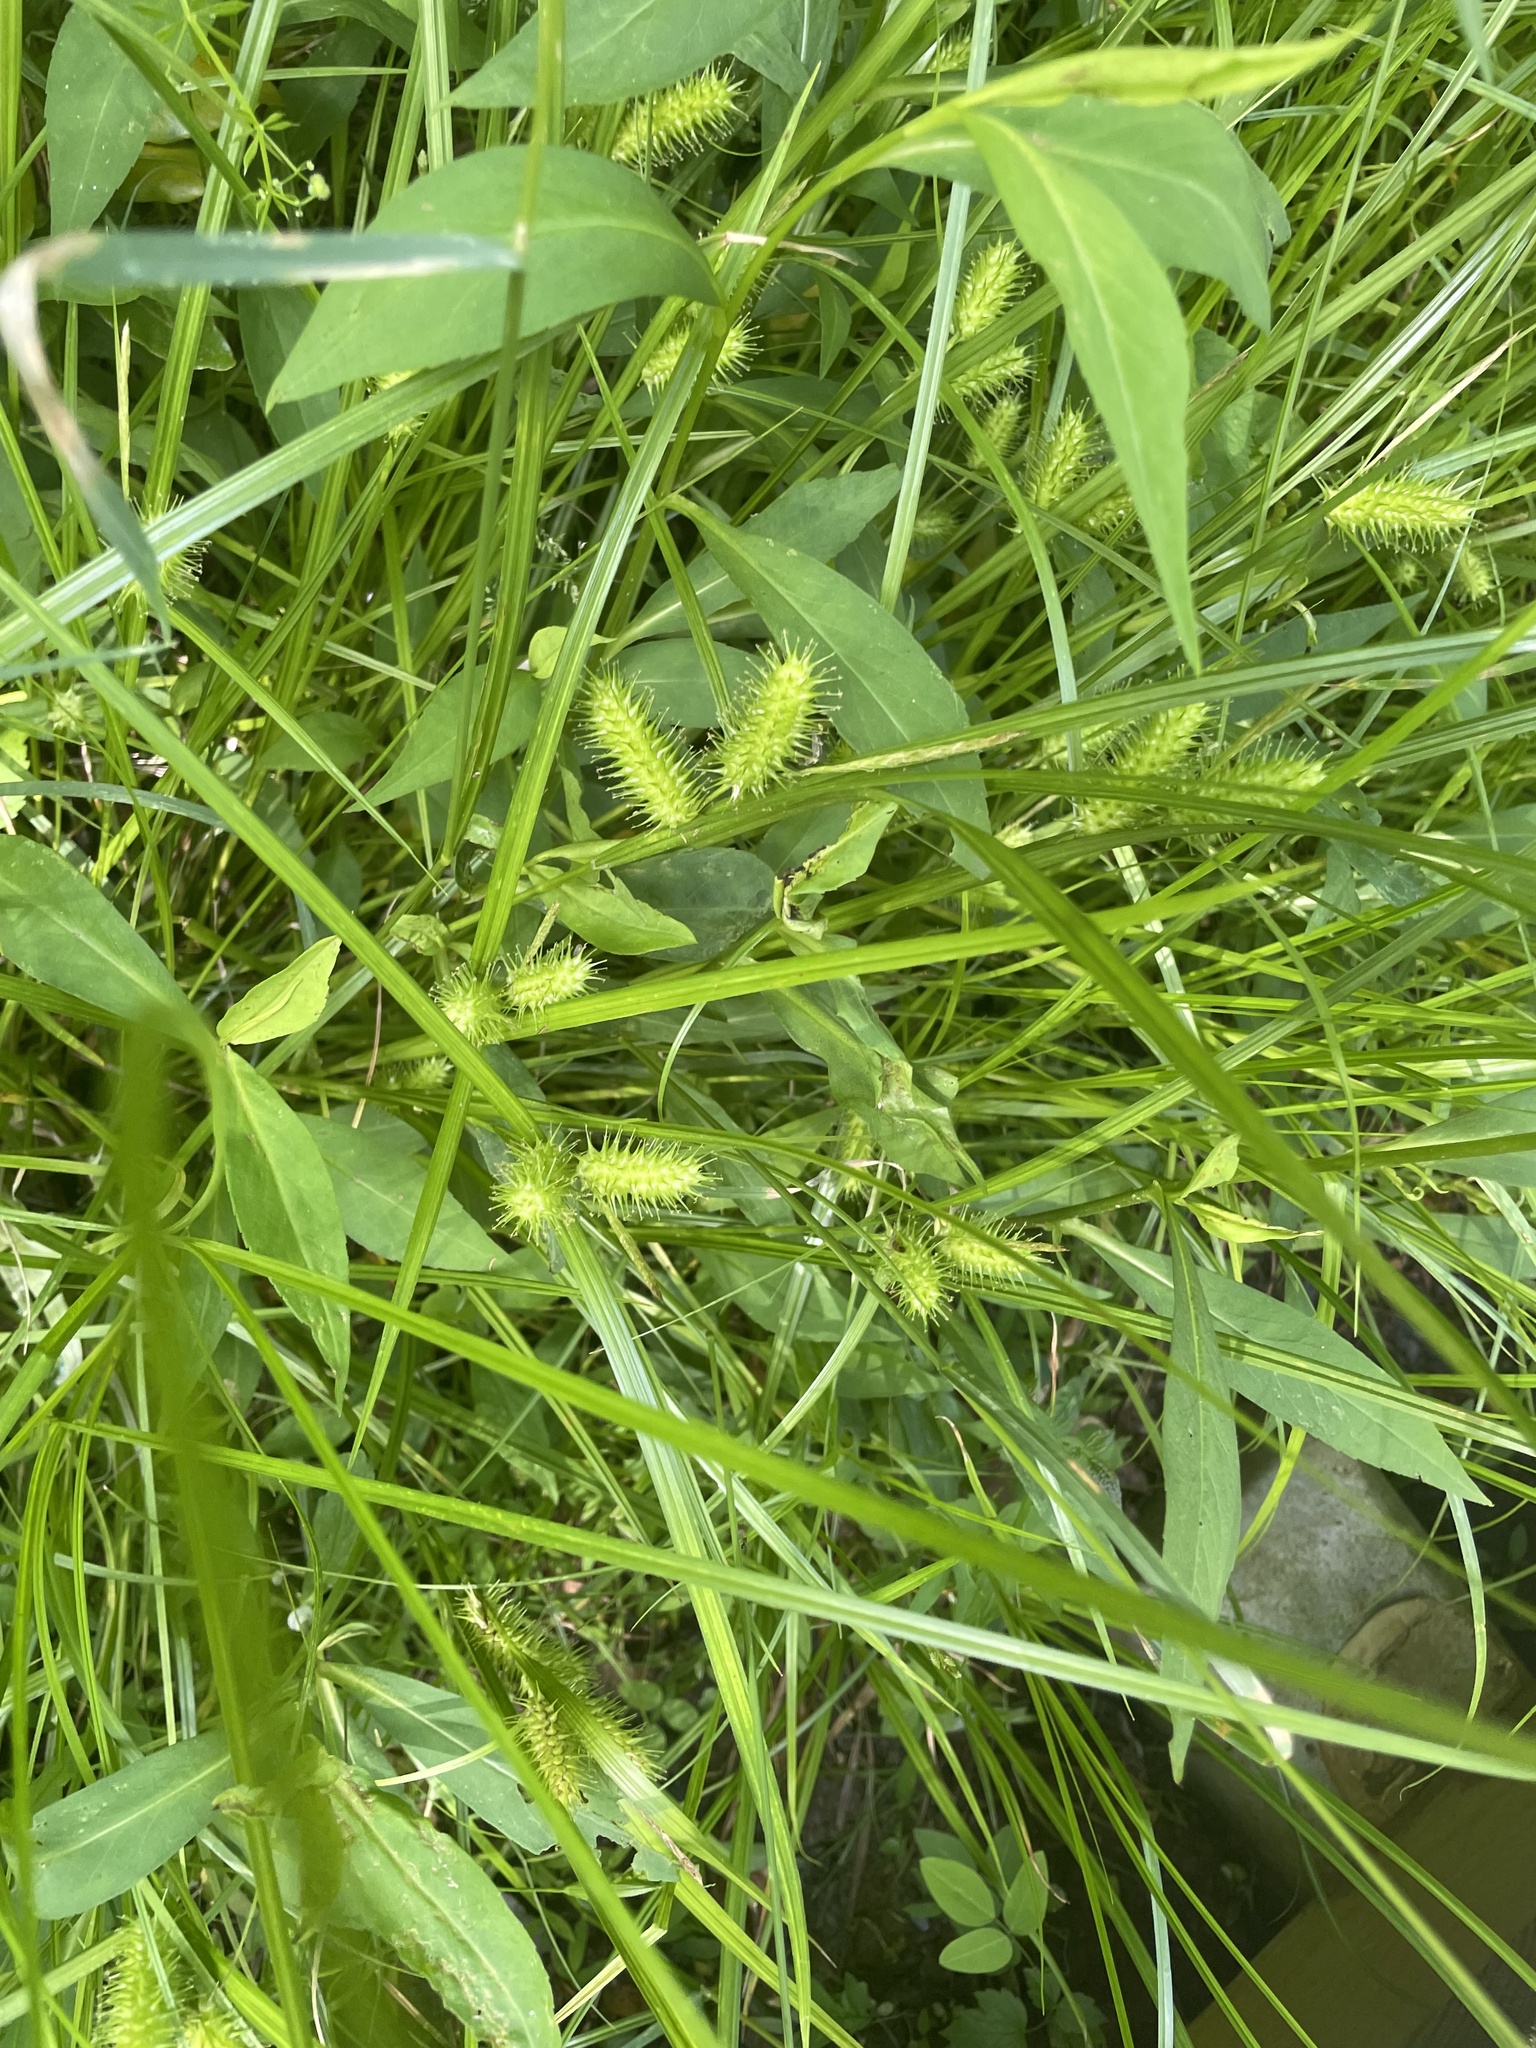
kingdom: Plantae
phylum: Tracheophyta
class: Liliopsida
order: Poales
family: Cyperaceae
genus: Carex
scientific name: Carex lurida
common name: Sallow sedge
